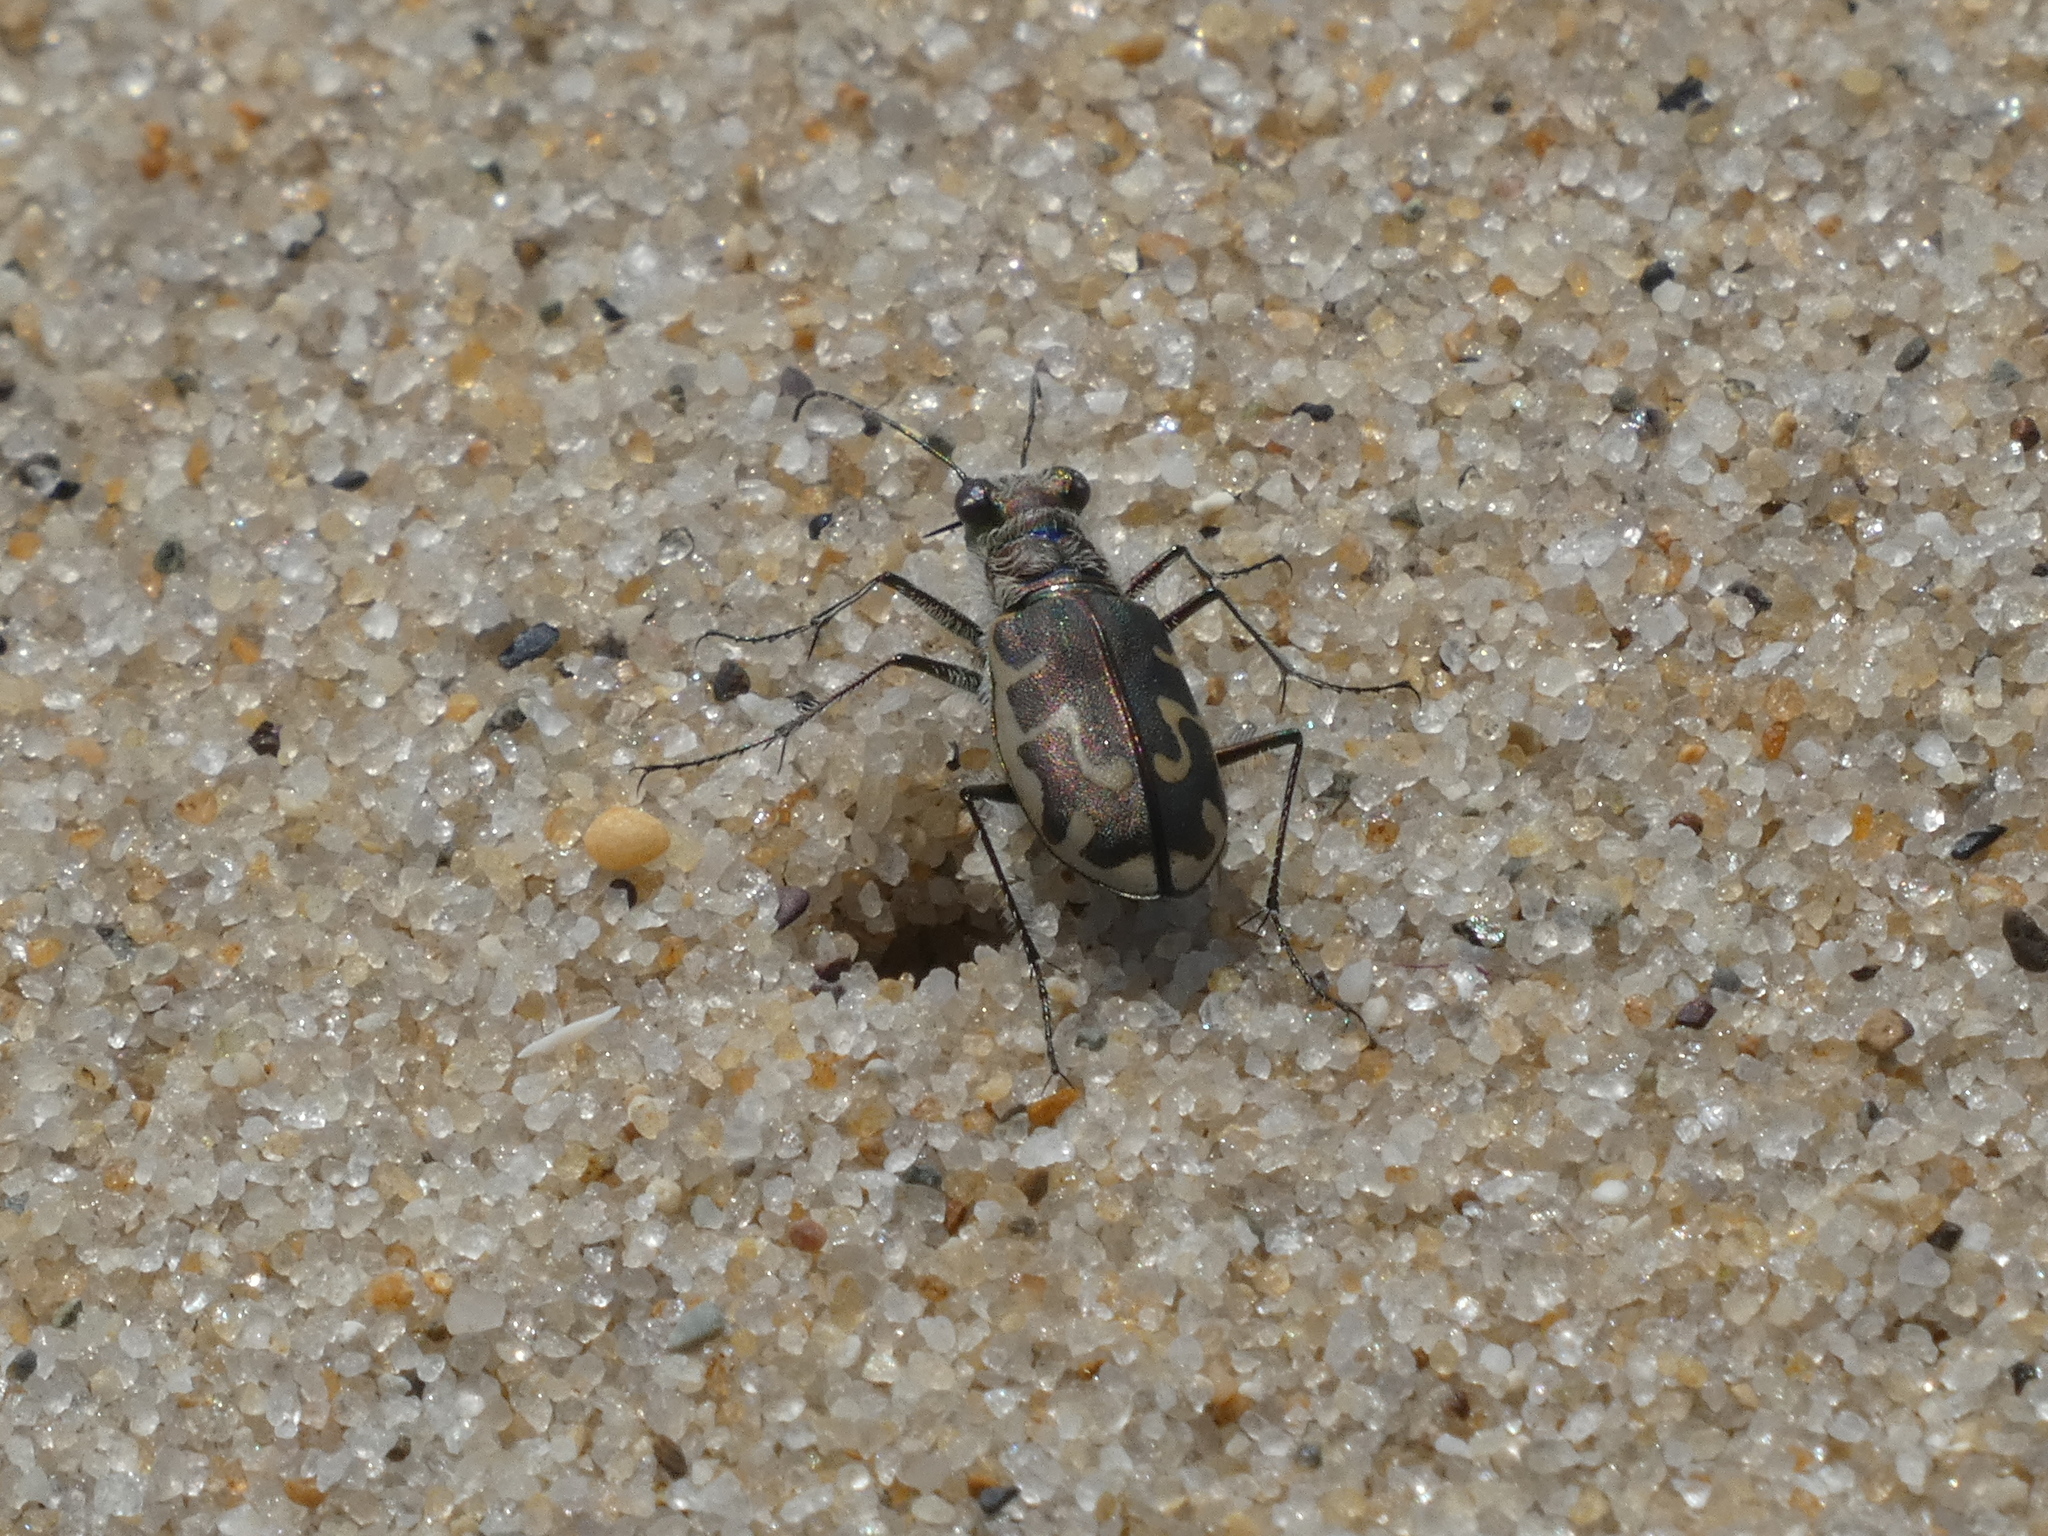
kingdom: Animalia
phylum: Arthropoda
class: Insecta
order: Coleoptera
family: Carabidae
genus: Cicindela
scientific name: Cicindela hirticollis
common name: Hairy-necked tiger beetle
